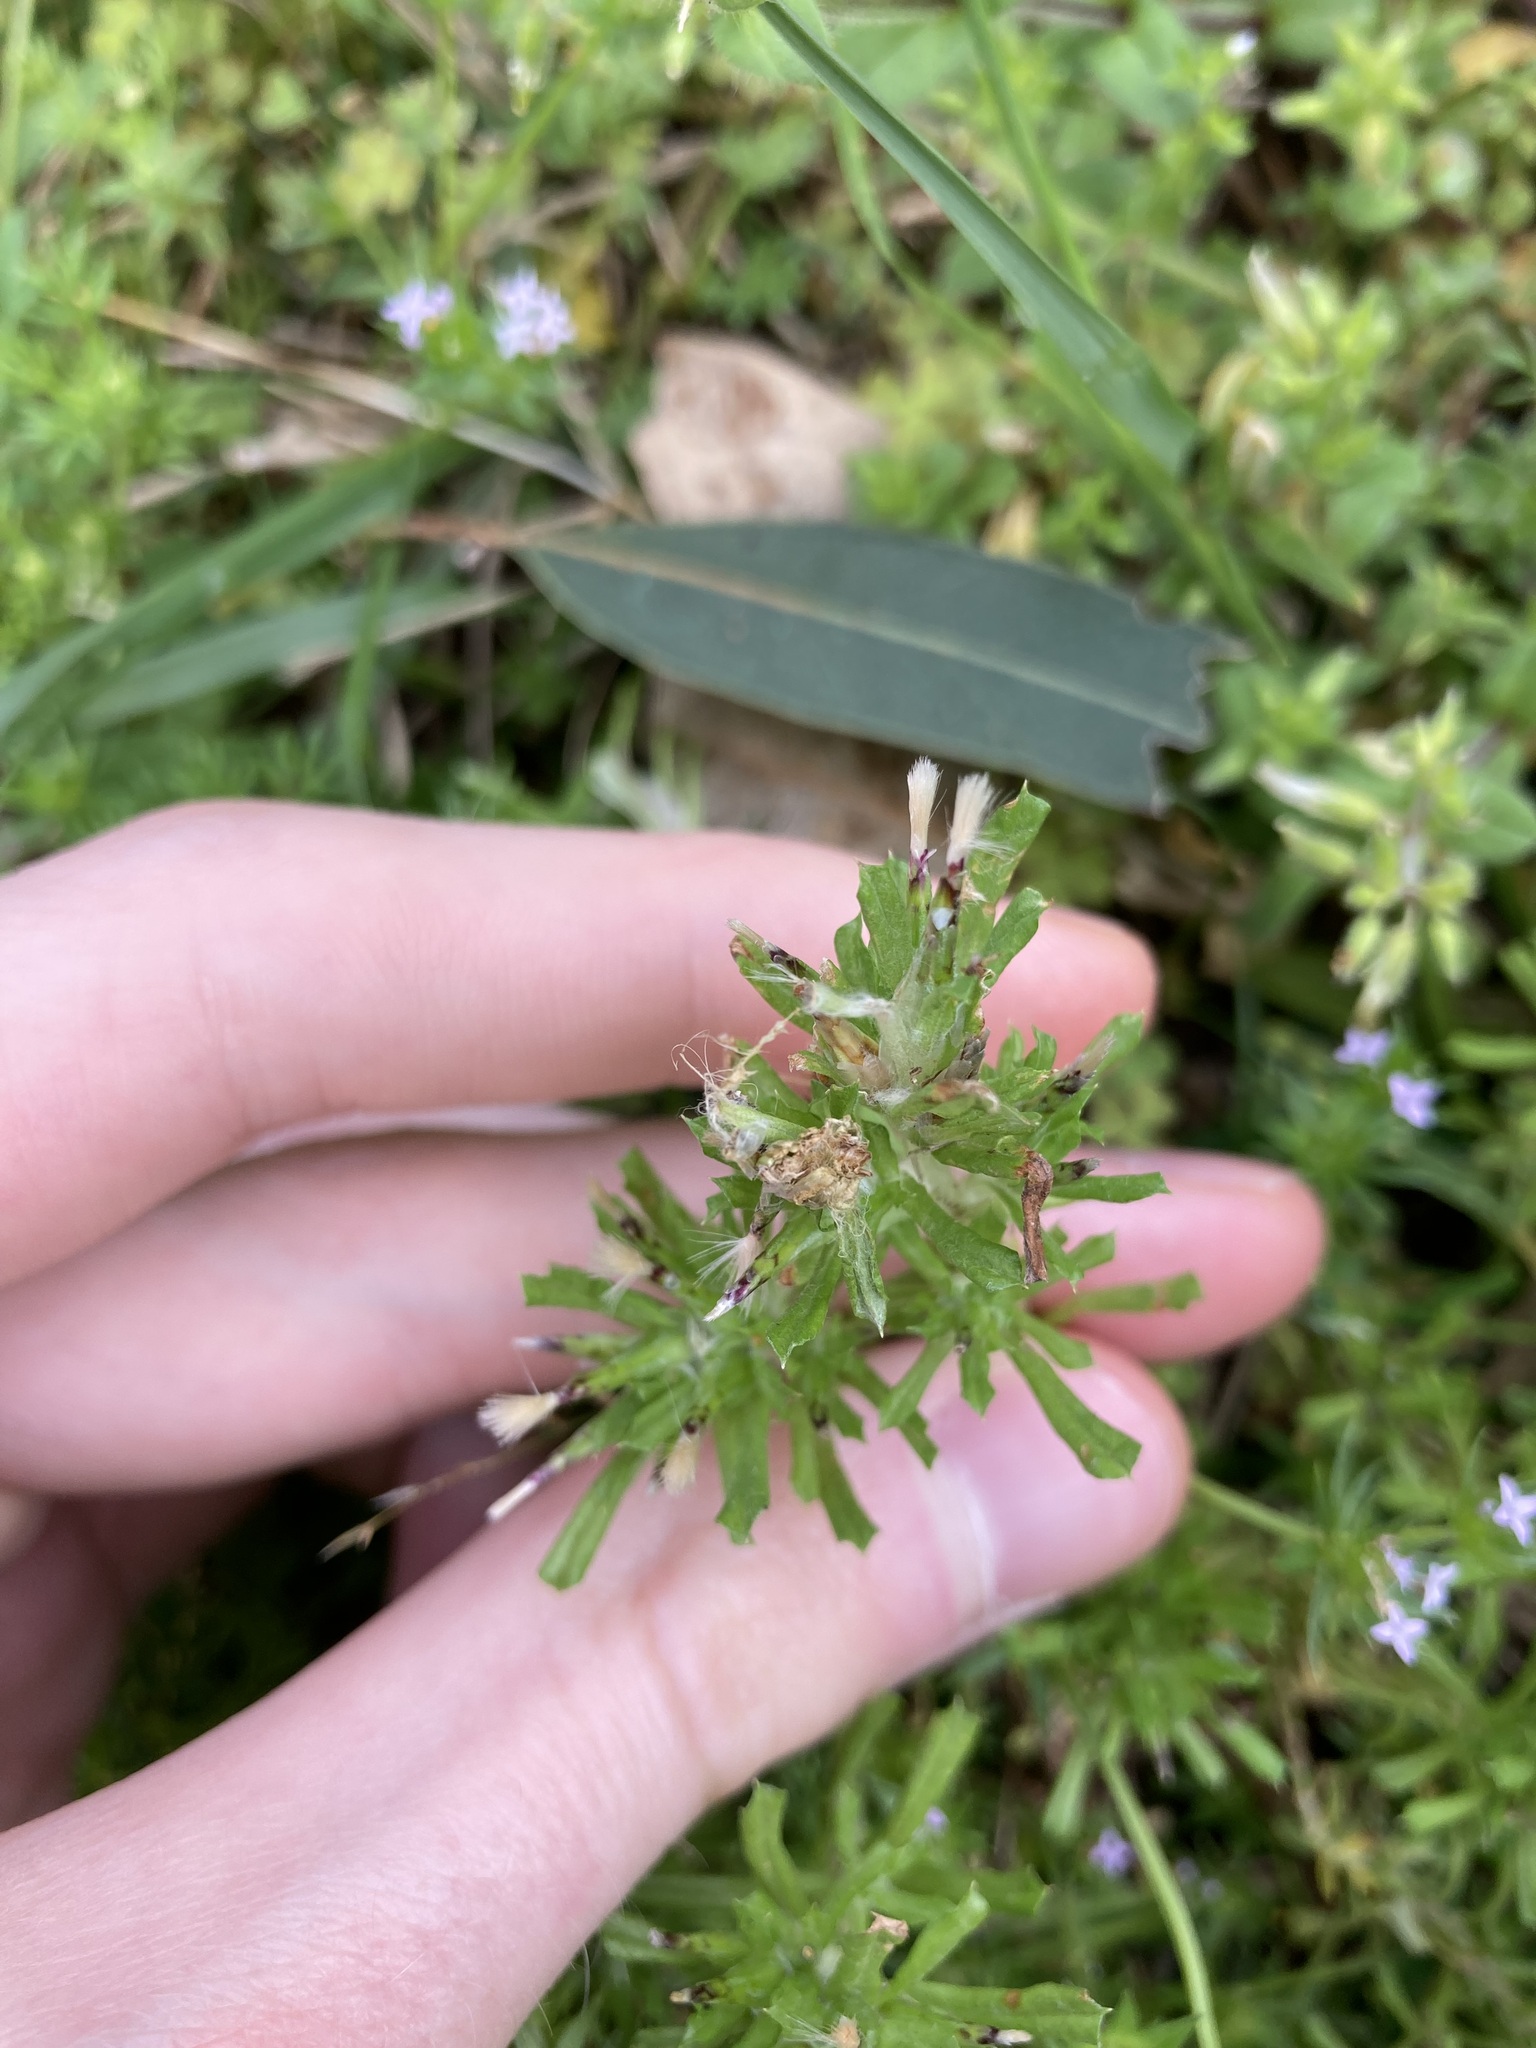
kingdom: Plantae
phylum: Tracheophyta
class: Magnoliopsida
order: Asterales
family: Asteraceae
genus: Facelis
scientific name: Facelis retusa
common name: Annual trampweed
